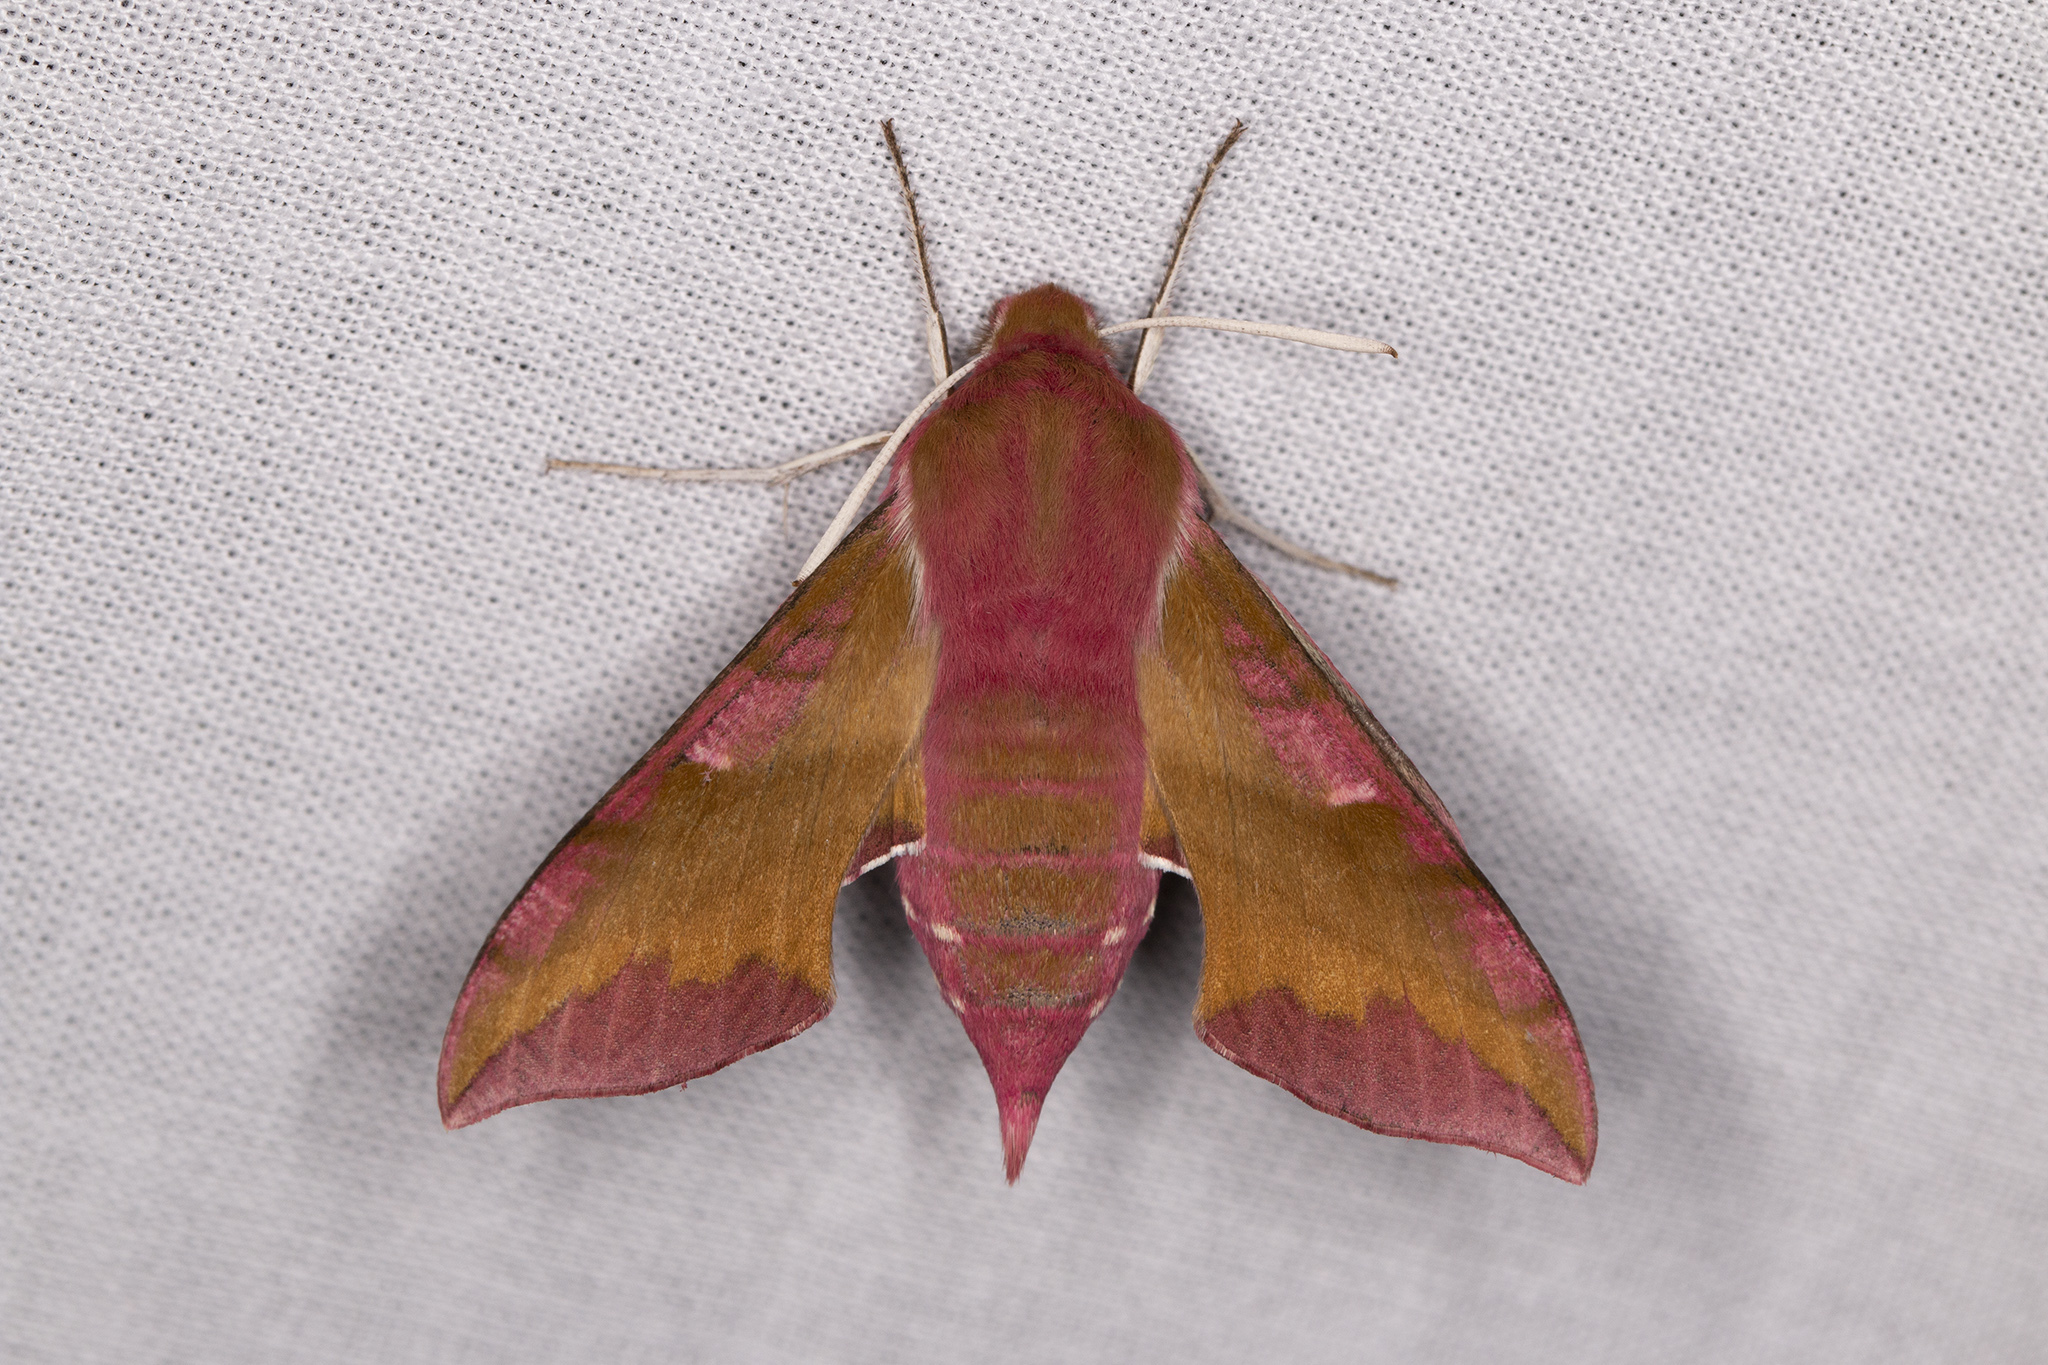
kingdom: Animalia
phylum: Arthropoda
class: Insecta
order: Lepidoptera
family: Sphingidae
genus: Deilephila
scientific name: Deilephila porcellus
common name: Small elephant hawk-moth
